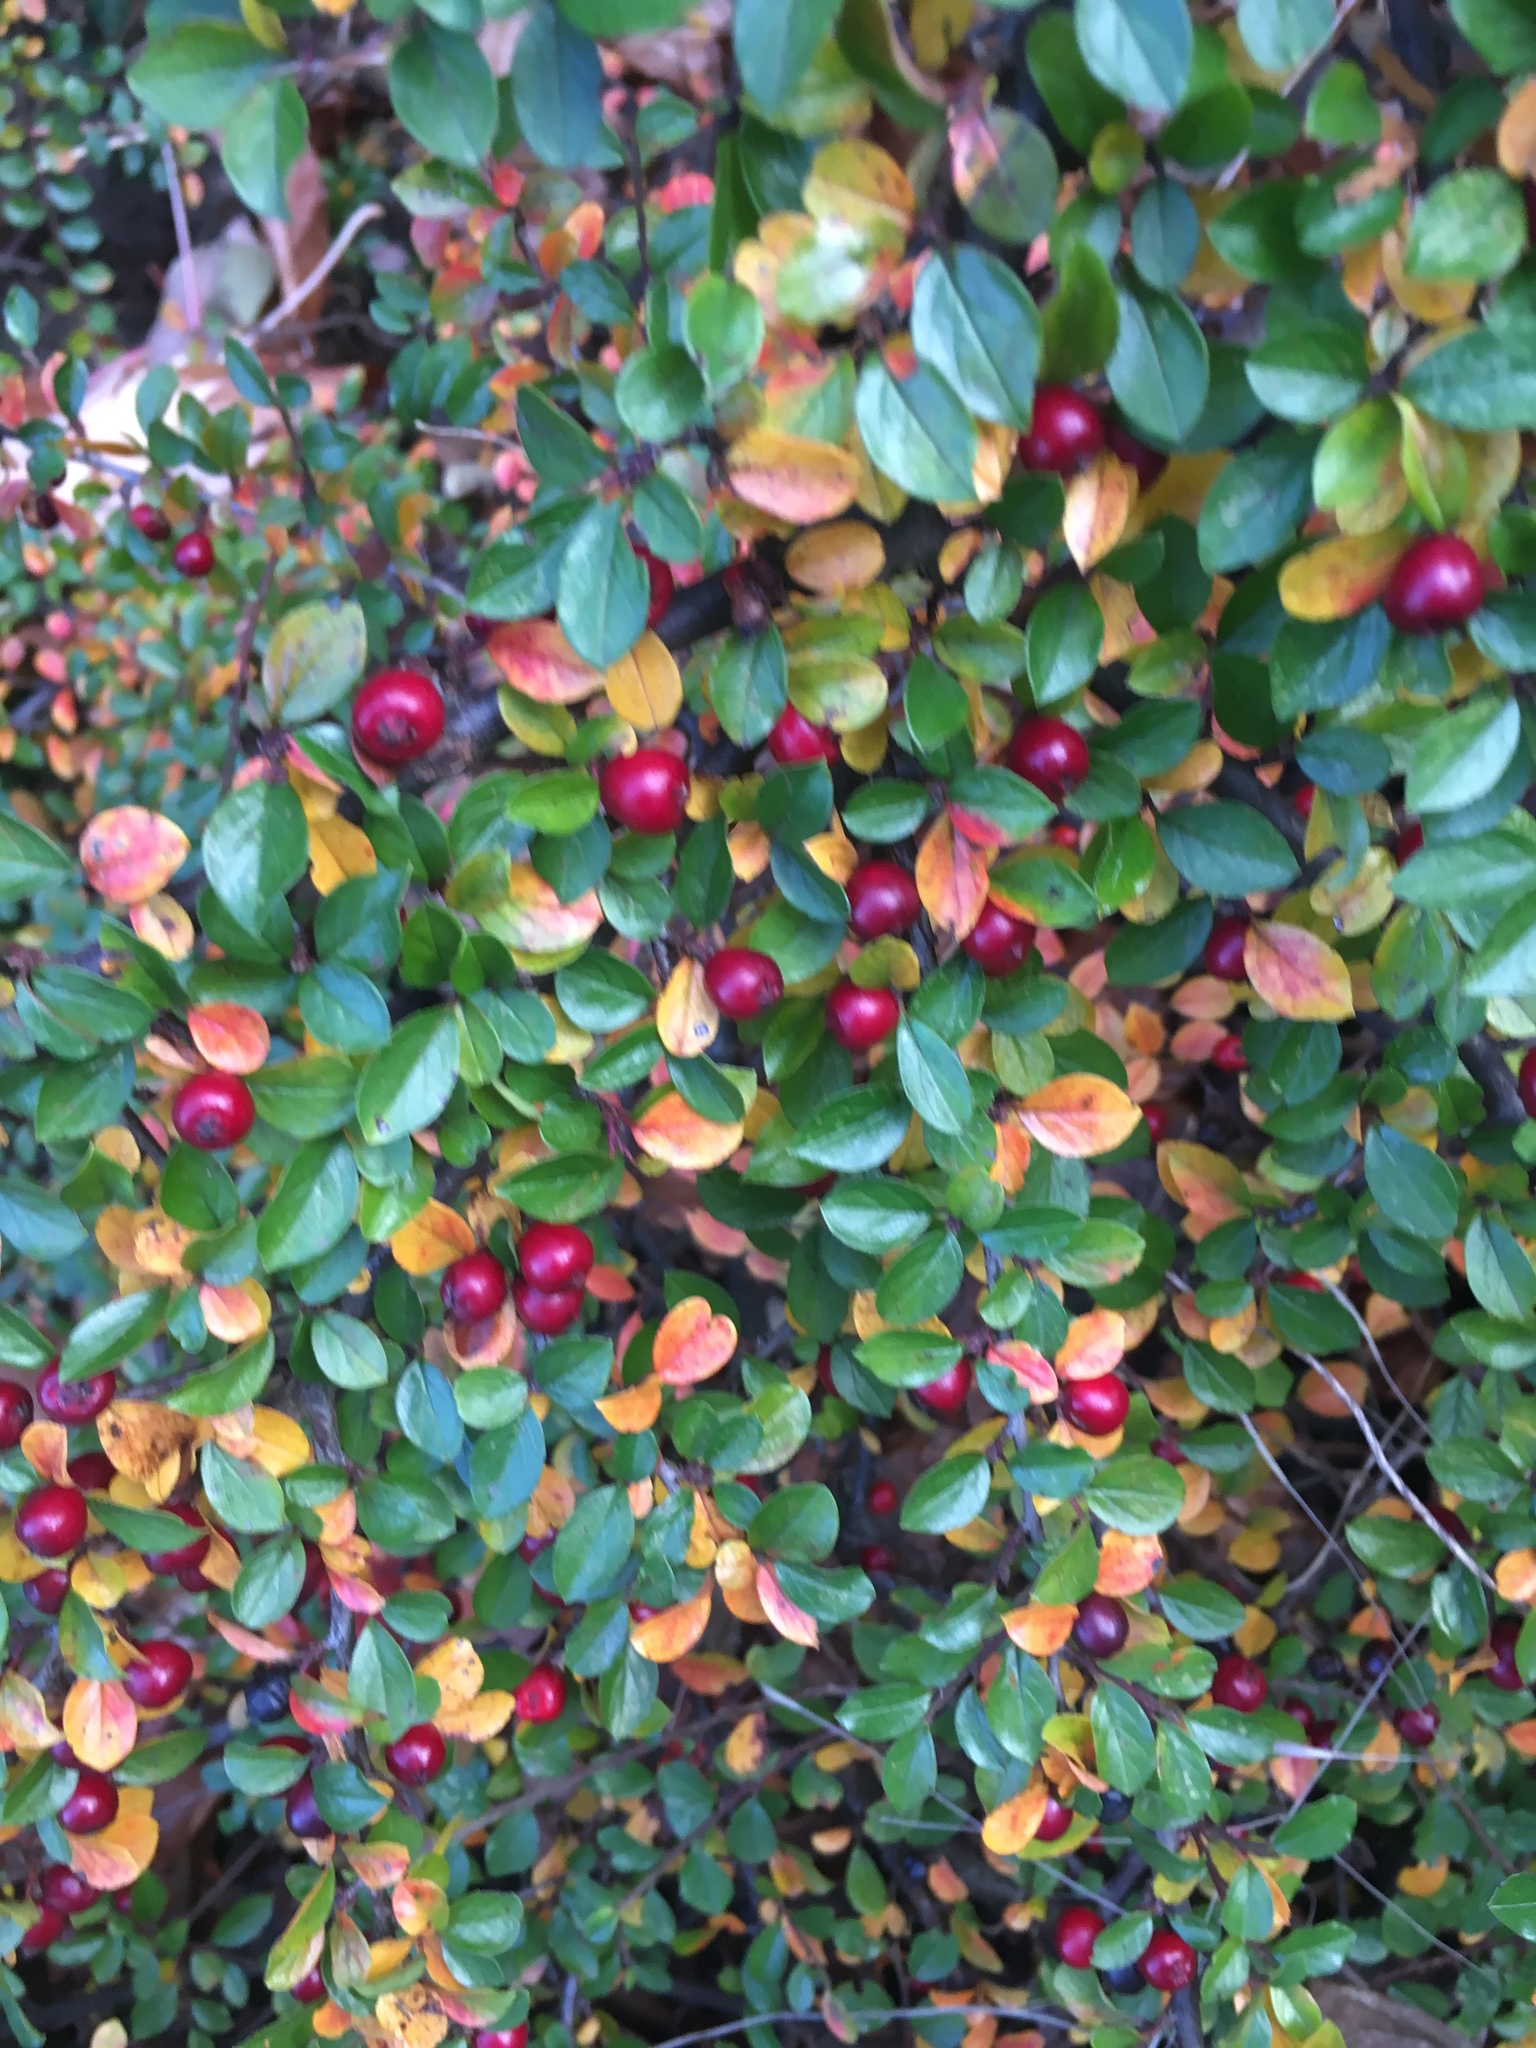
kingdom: Plantae
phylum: Tracheophyta
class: Magnoliopsida
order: Rosales
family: Rosaceae
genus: Cotoneaster
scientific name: Cotoneaster divaricatus
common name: Spreading cotoneaster
